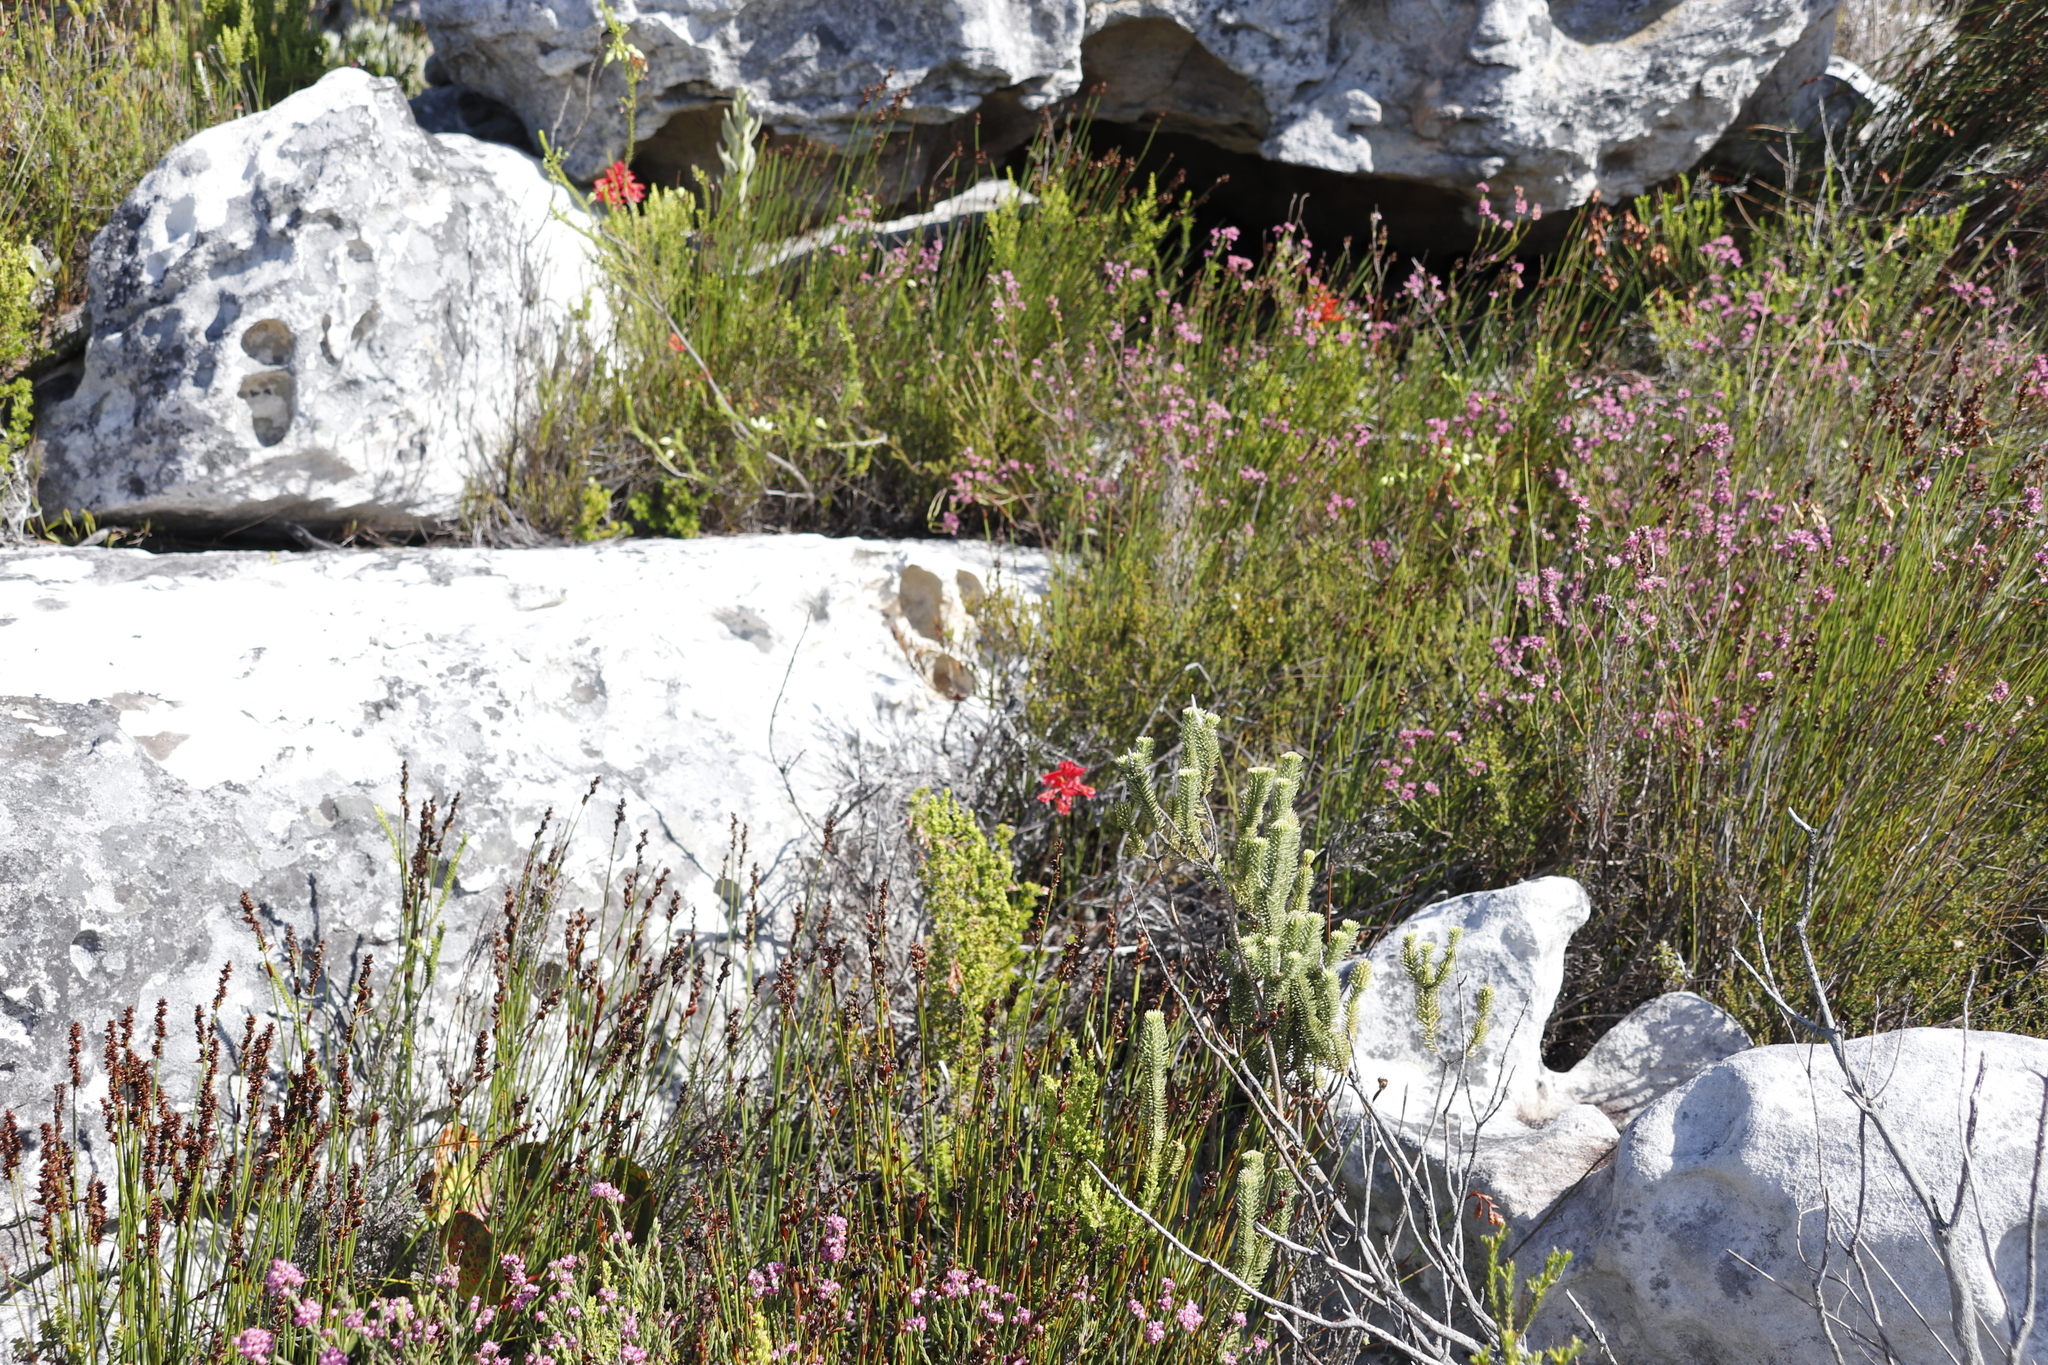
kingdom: Plantae
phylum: Tracheophyta
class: Liliopsida
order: Asparagales
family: Iridaceae
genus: Tritoniopsis
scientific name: Tritoniopsis triticea
